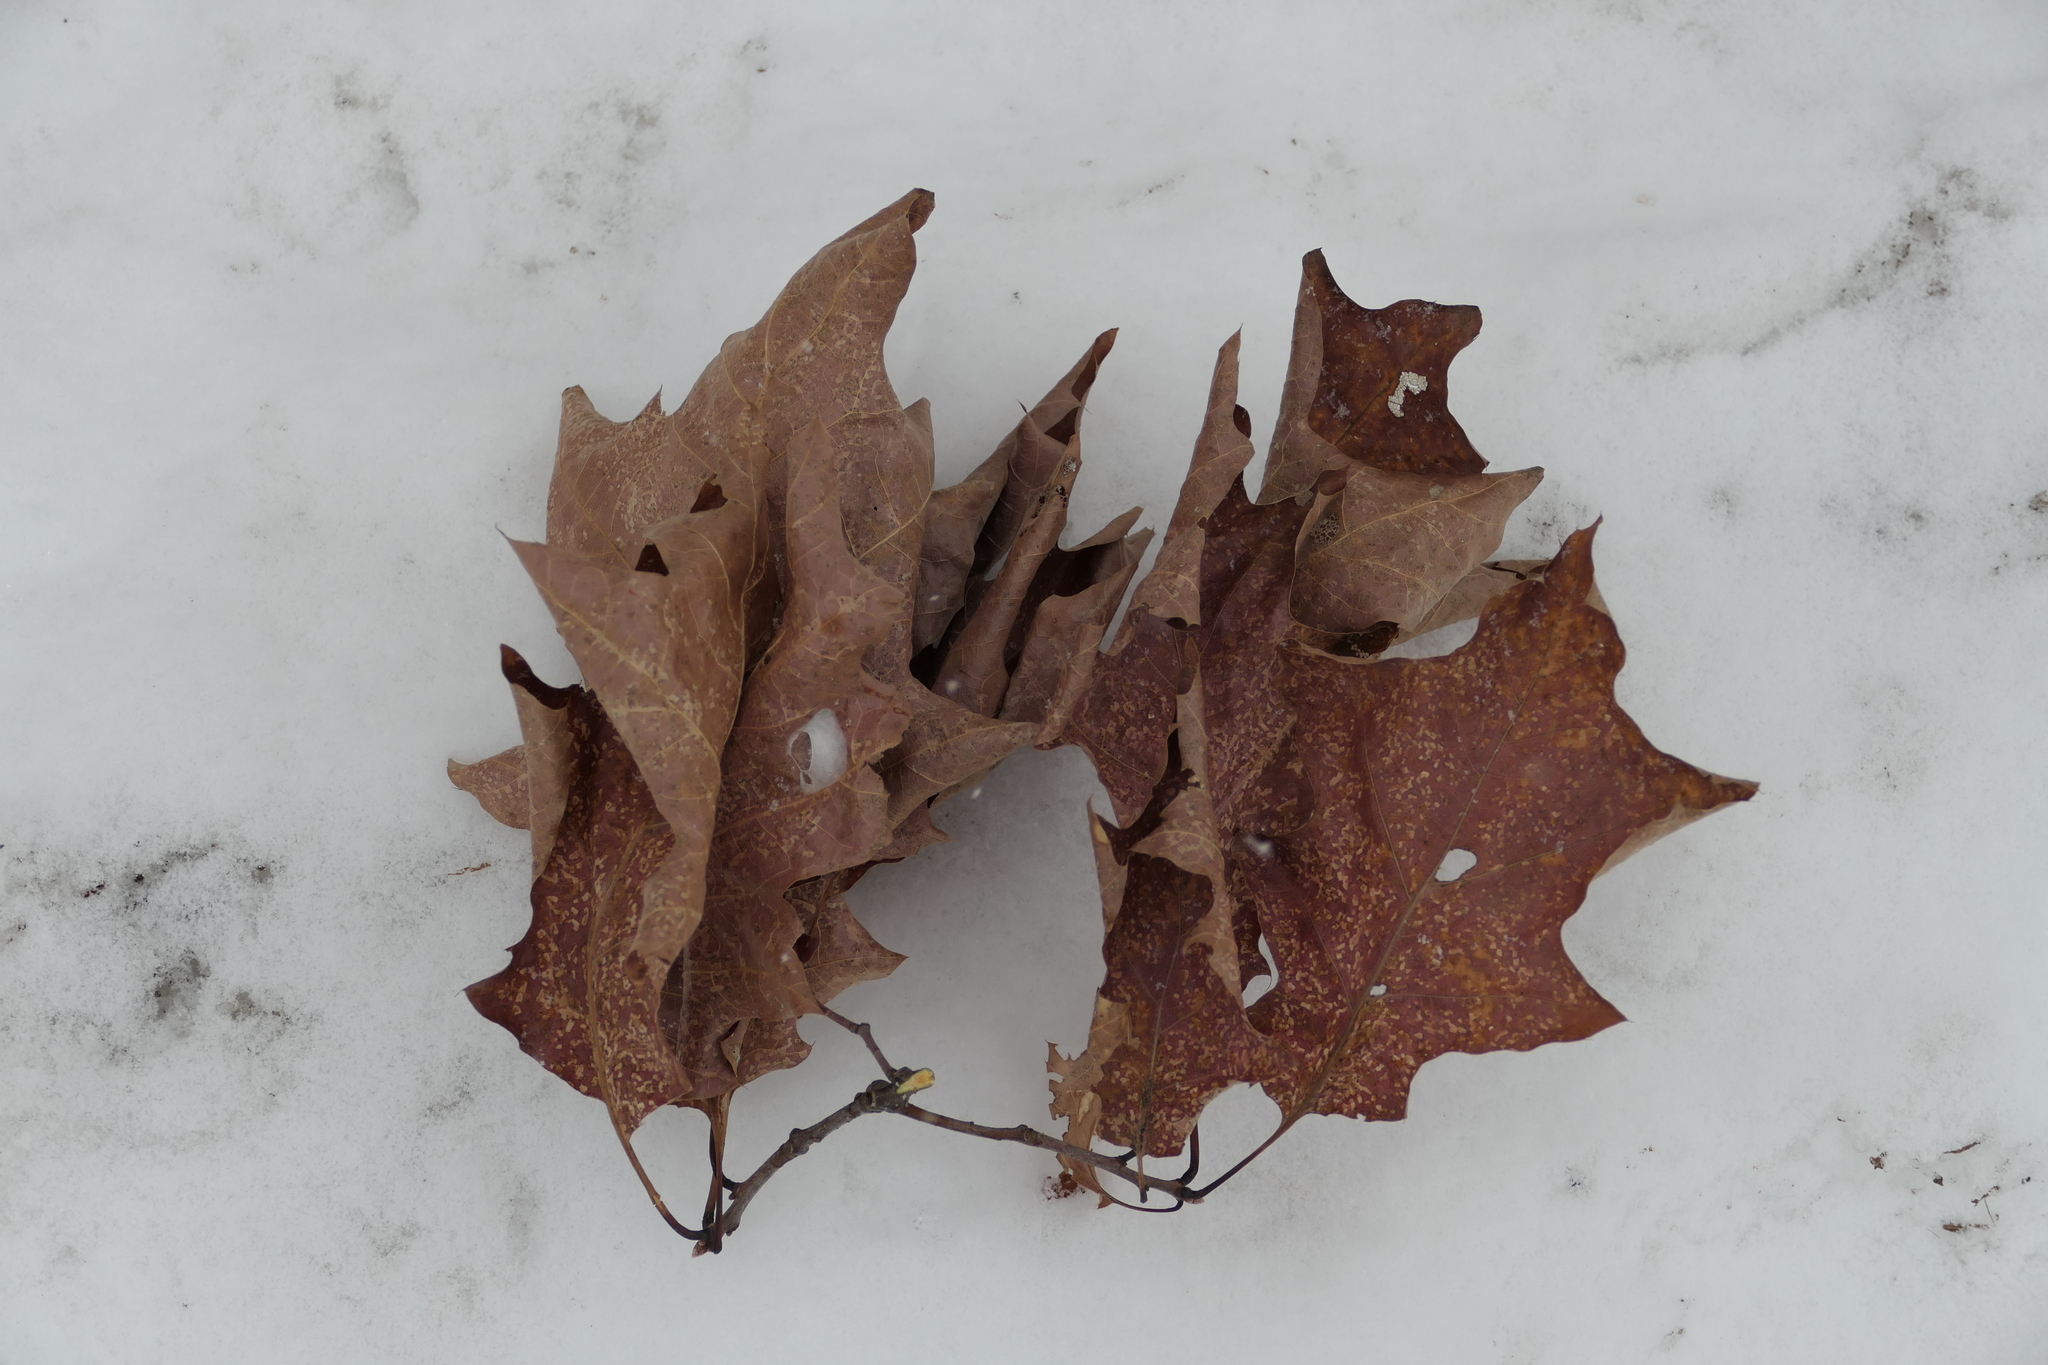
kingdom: Plantae
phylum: Tracheophyta
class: Magnoliopsida
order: Fagales
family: Fagaceae
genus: Quercus
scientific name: Quercus rubra
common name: Red oak
